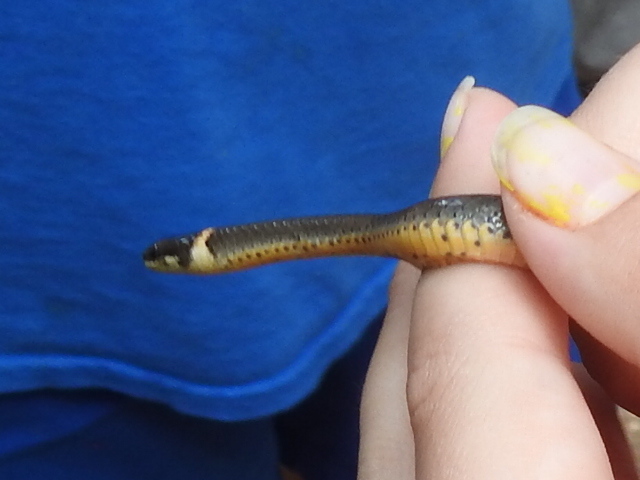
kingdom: Animalia
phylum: Chordata
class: Squamata
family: Colubridae
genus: Diadophis
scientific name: Diadophis punctatus
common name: Ringneck snake
